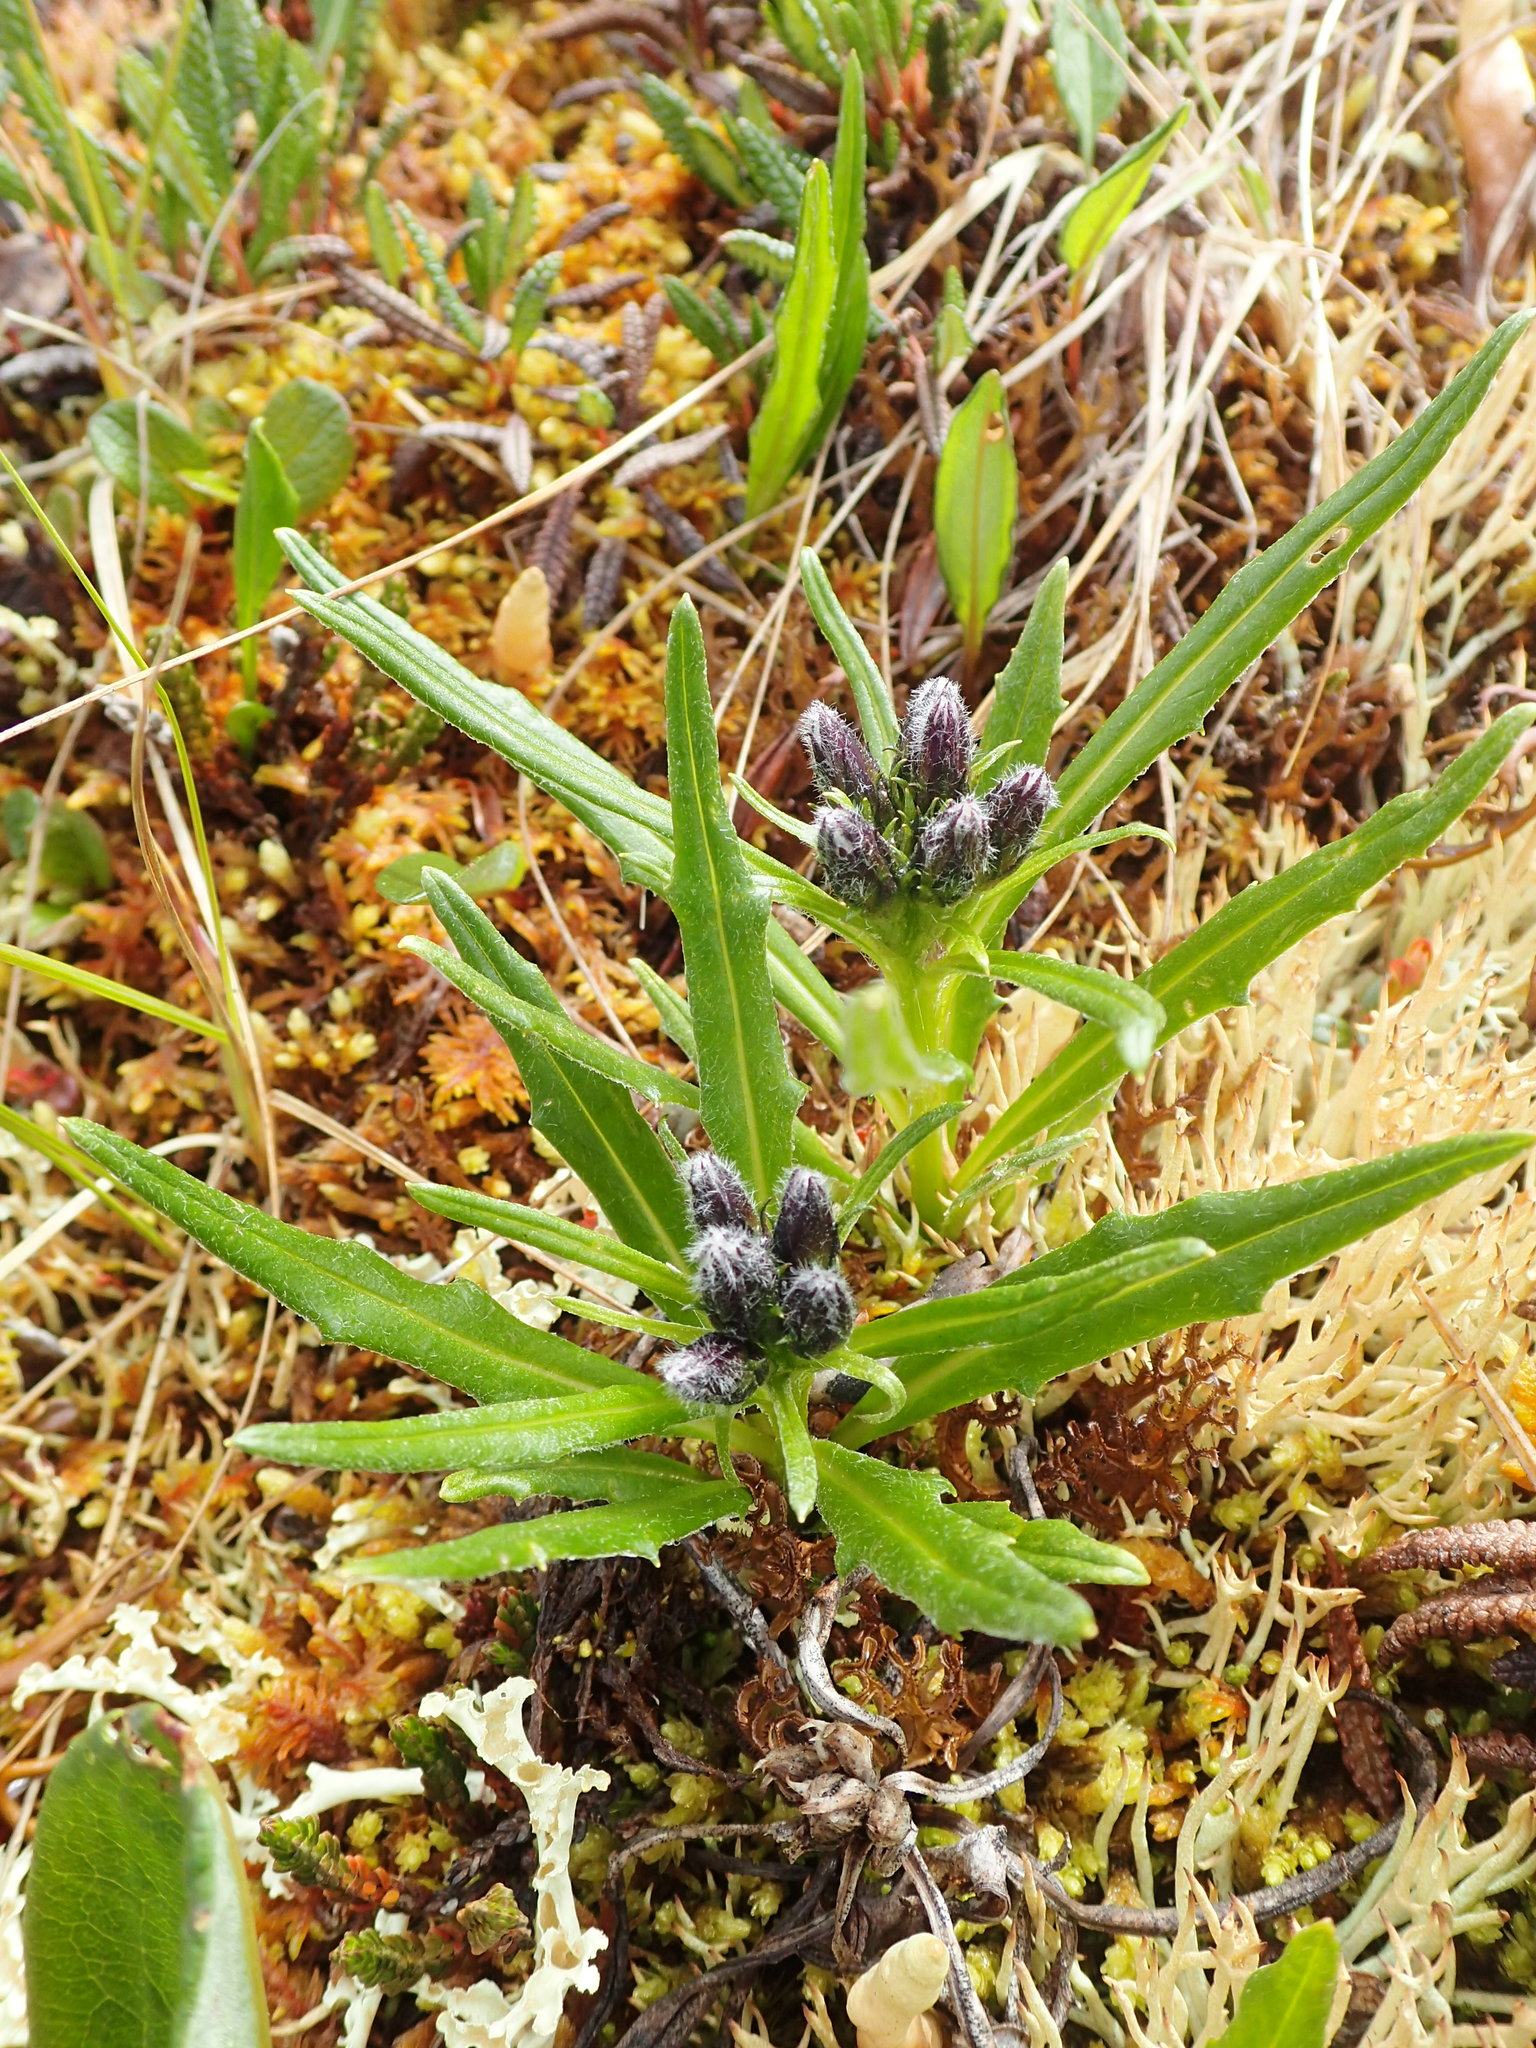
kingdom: Plantae
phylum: Tracheophyta
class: Magnoliopsida
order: Asterales
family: Asteraceae
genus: Saussurea
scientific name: Saussurea angustifolia
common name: Common saussurea
